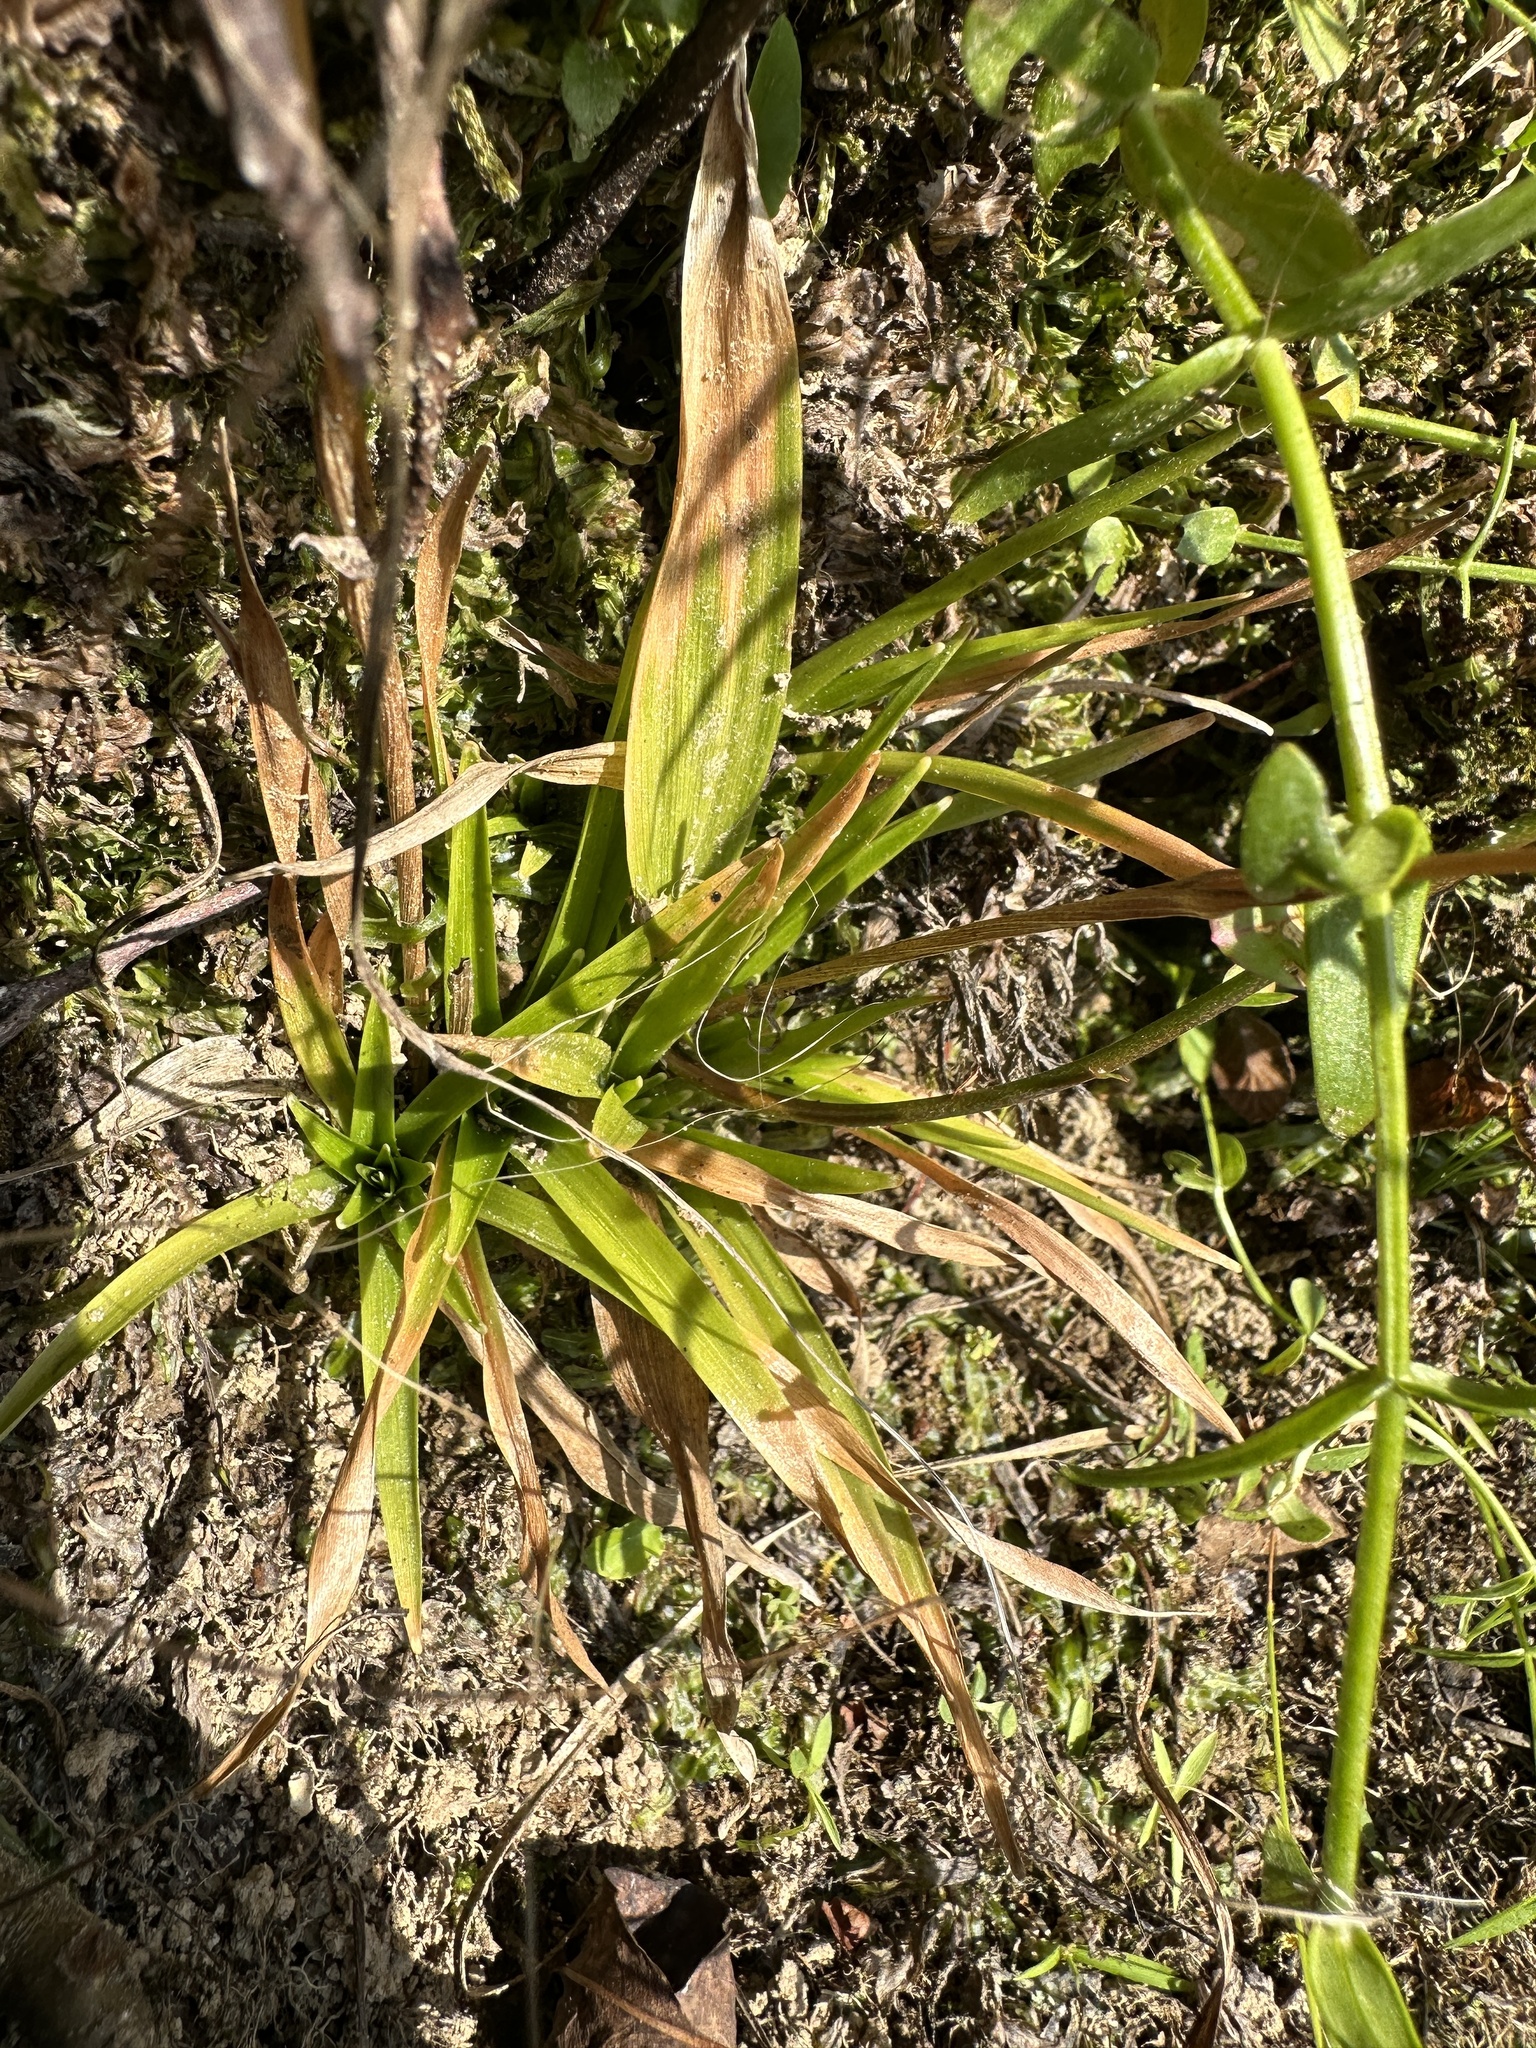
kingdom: Plantae
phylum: Tracheophyta
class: Liliopsida
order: Poales
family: Eriocaulaceae
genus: Eriocaulon
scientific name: Eriocaulon decangulare
